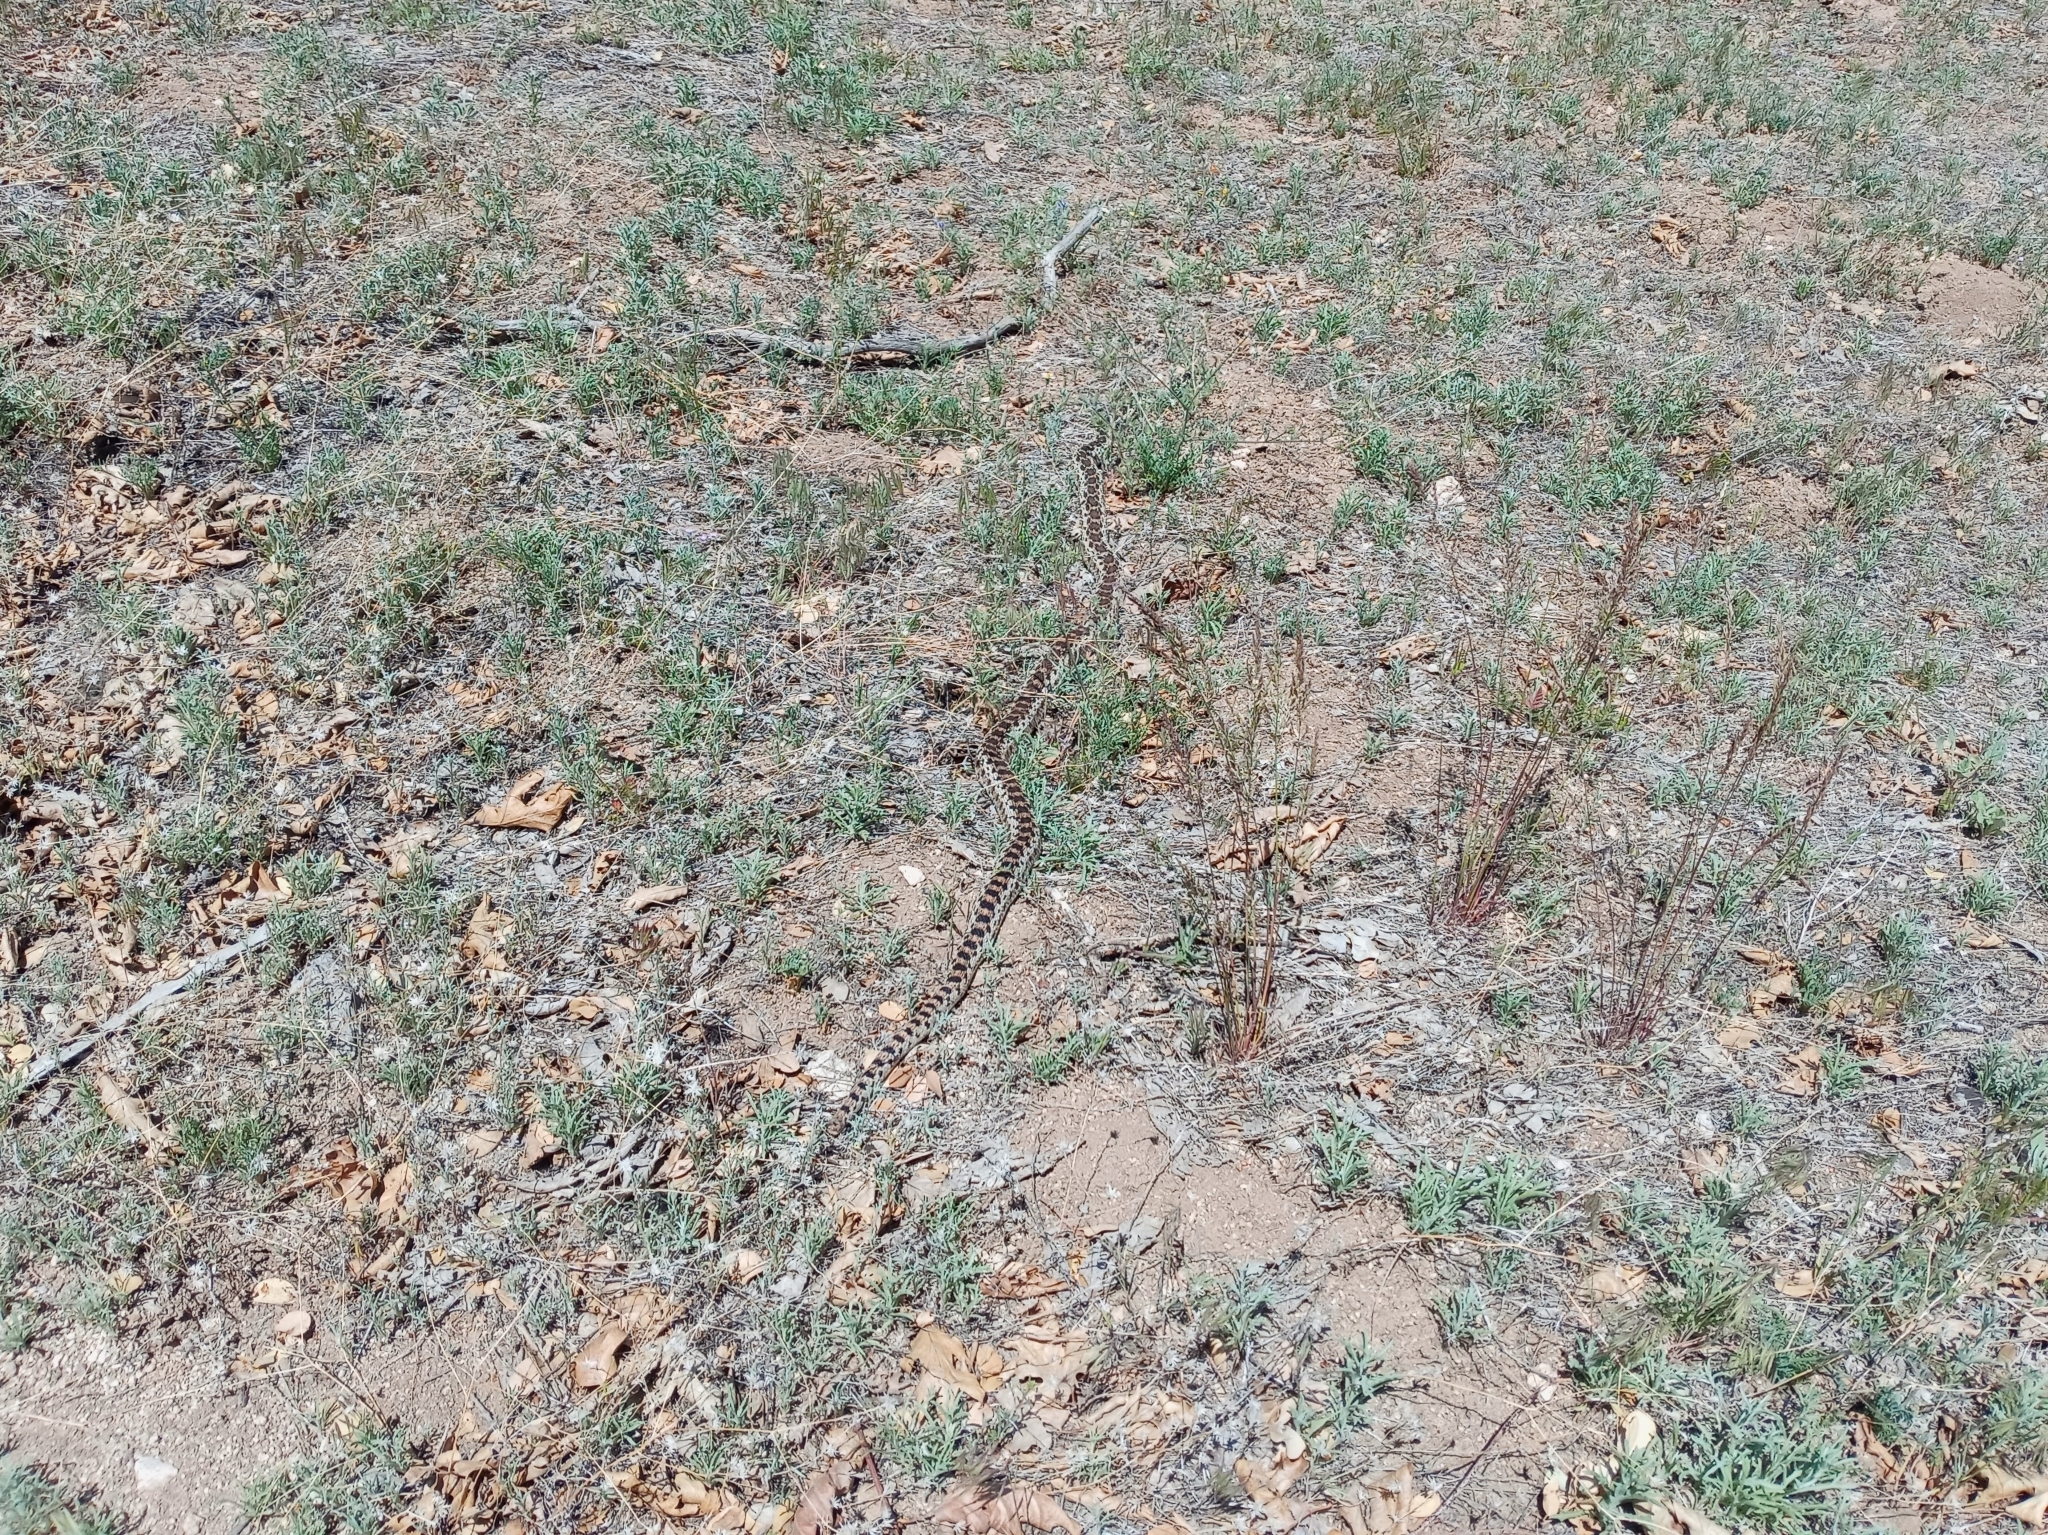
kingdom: Animalia
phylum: Chordata
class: Squamata
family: Colubridae
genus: Pituophis
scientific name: Pituophis catenifer
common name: Gopher snake
